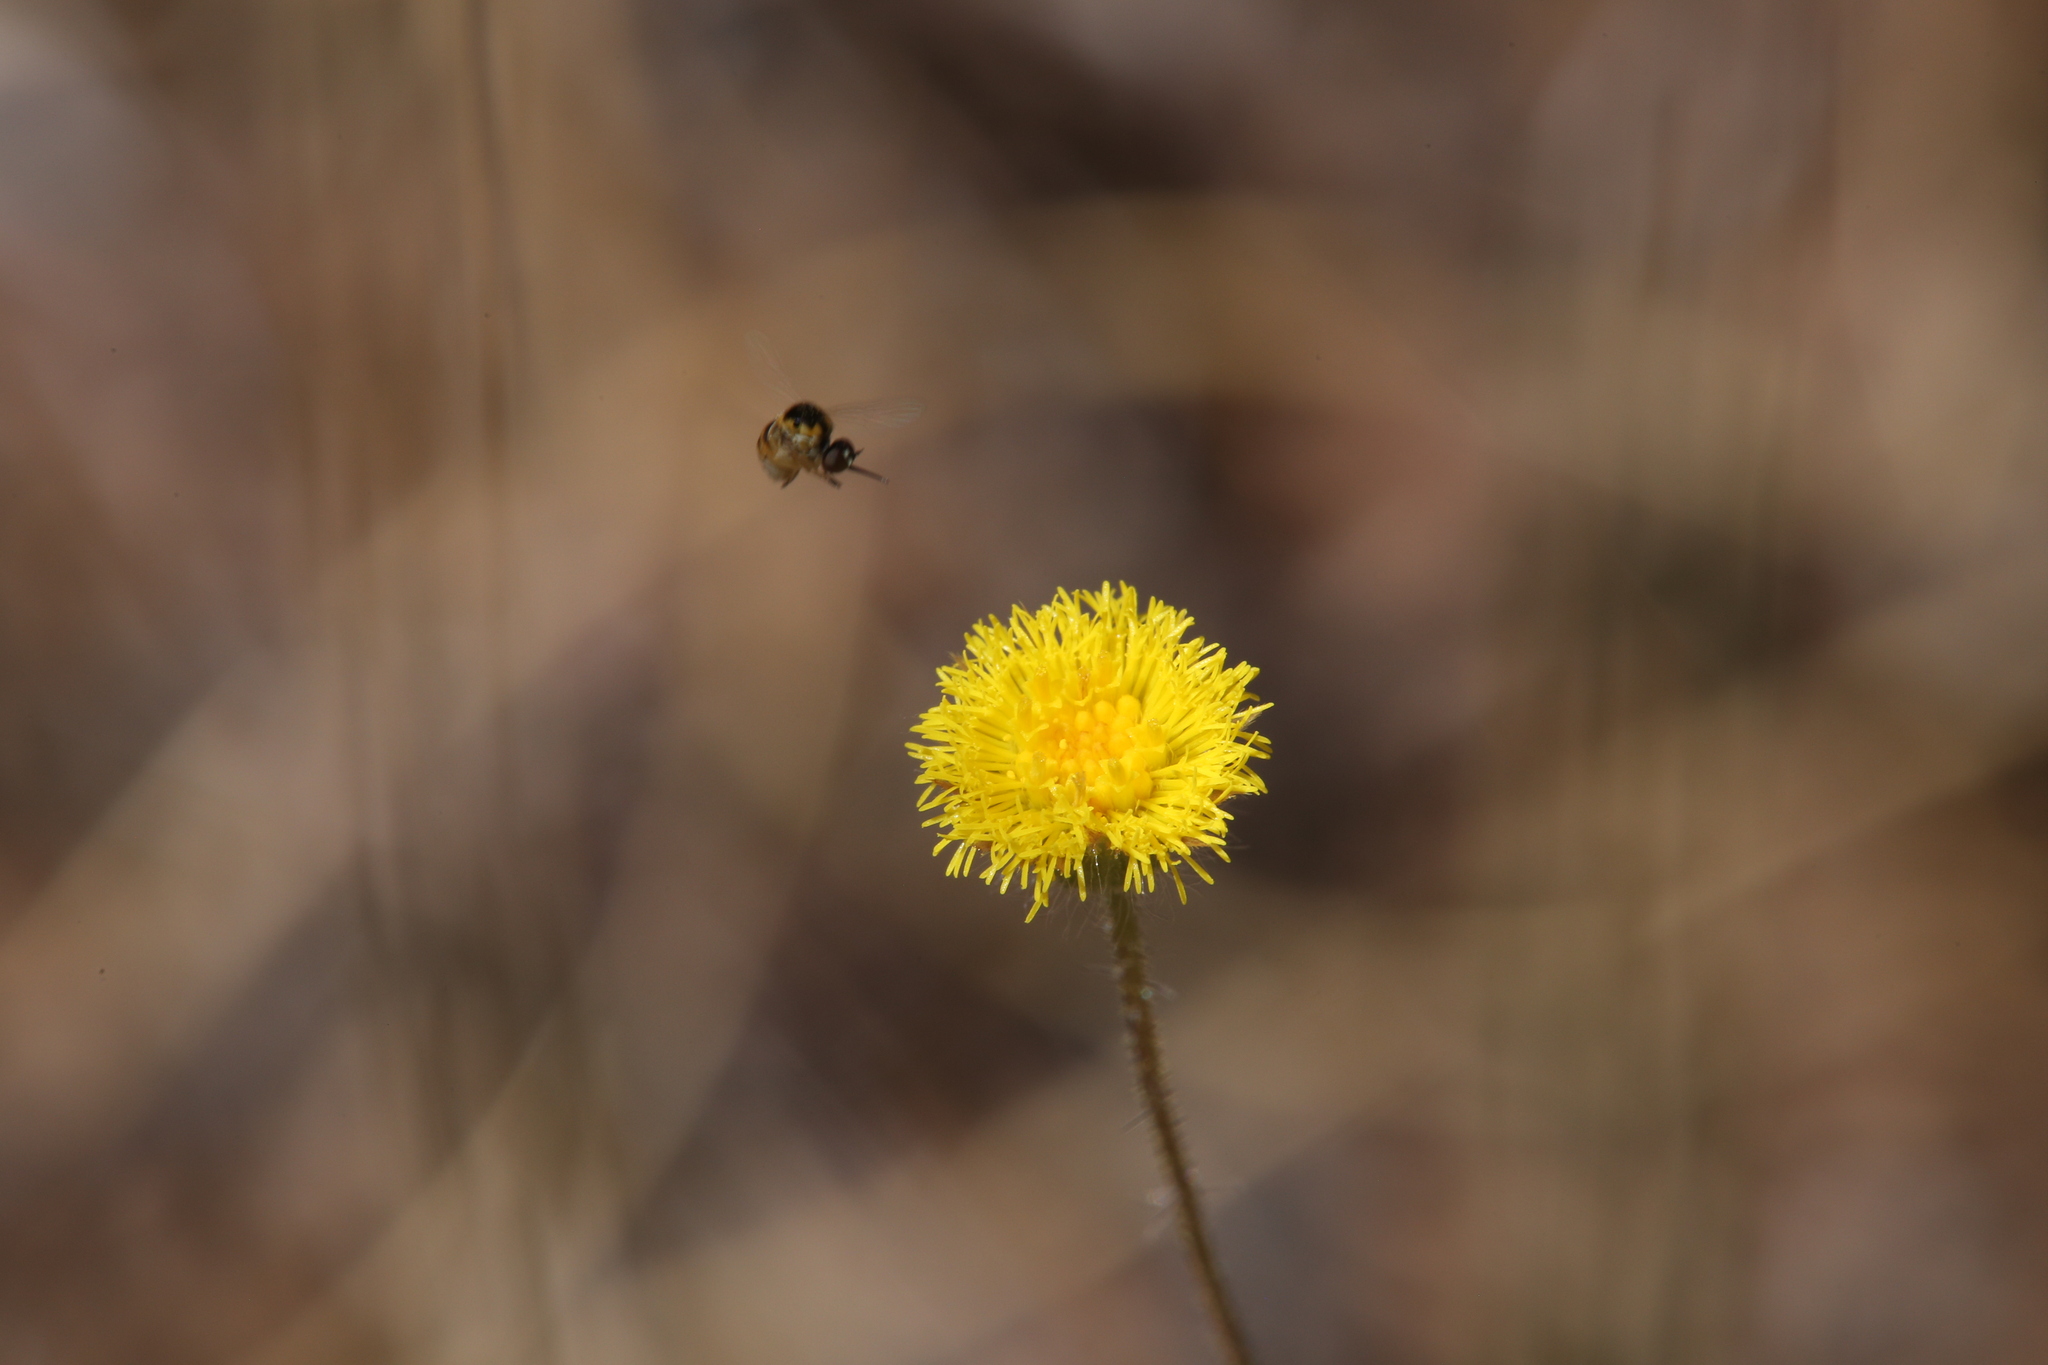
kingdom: Plantae
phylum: Tracheophyta
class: Magnoliopsida
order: Asterales
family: Asteraceae
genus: Blumea
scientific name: Blumea integrifolia
